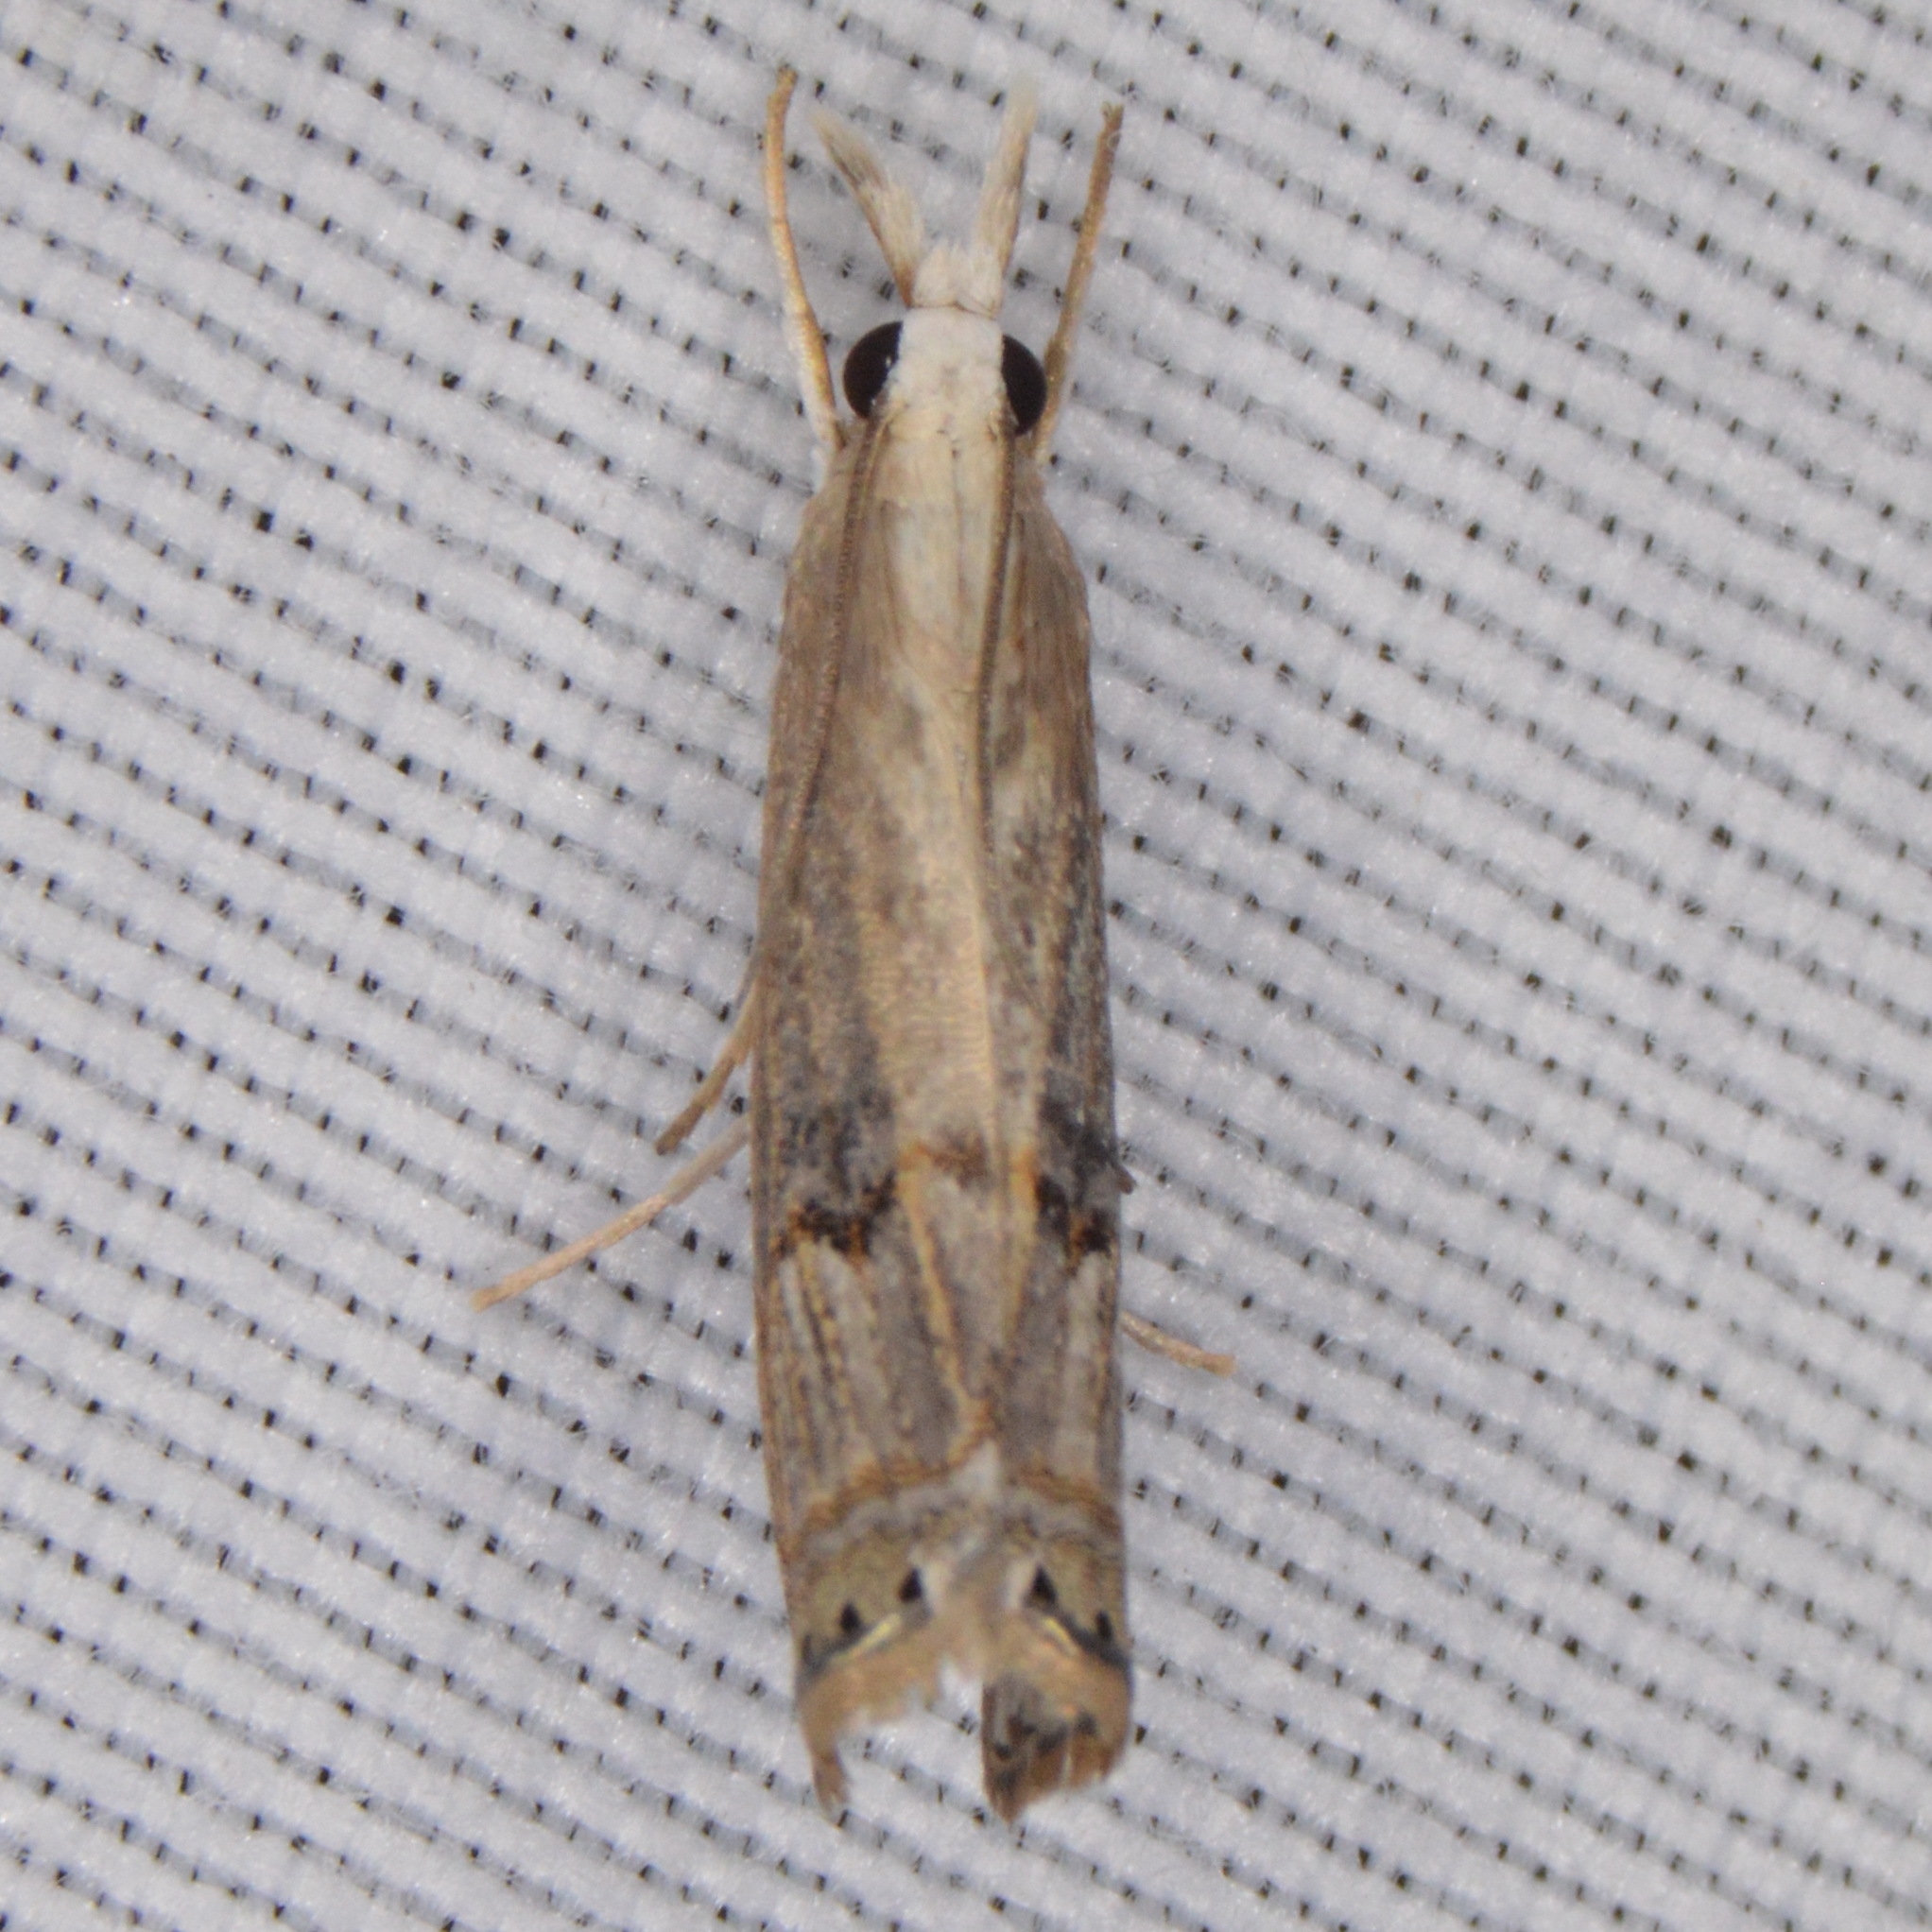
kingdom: Animalia
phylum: Arthropoda
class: Insecta
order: Lepidoptera
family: Crambidae
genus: Parapediasia
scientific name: Parapediasia teterellus
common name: Bluegrass webworm moth
